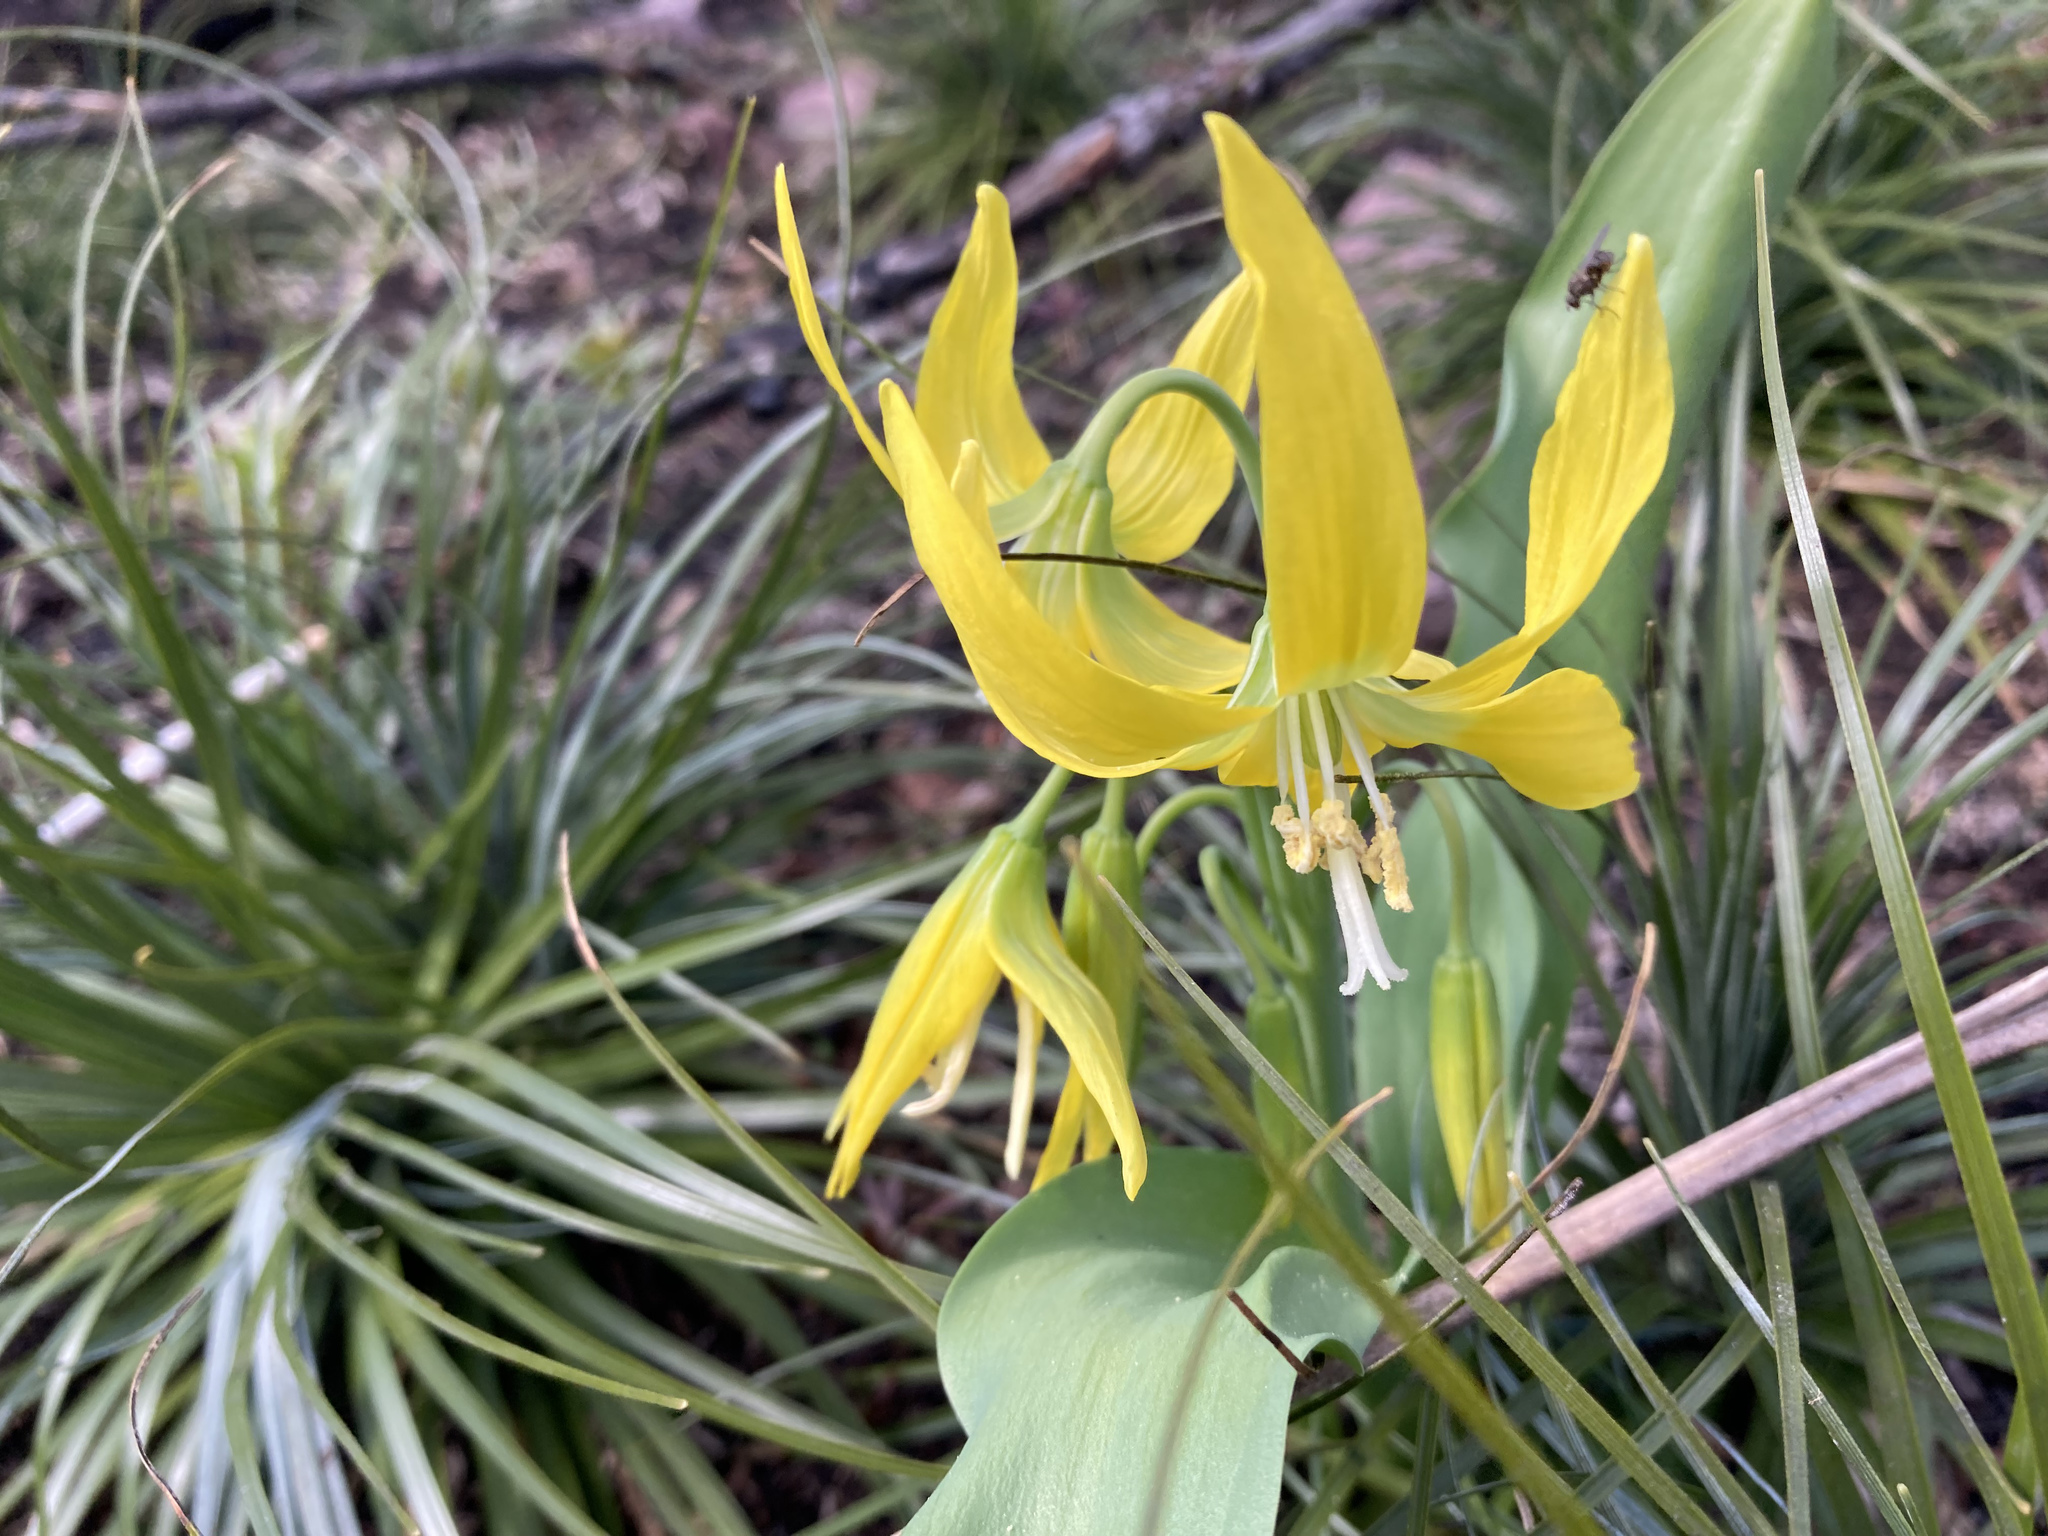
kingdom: Plantae
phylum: Tracheophyta
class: Liliopsida
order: Liliales
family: Liliaceae
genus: Erythronium
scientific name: Erythronium grandiflorum
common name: Avalanche-lily
